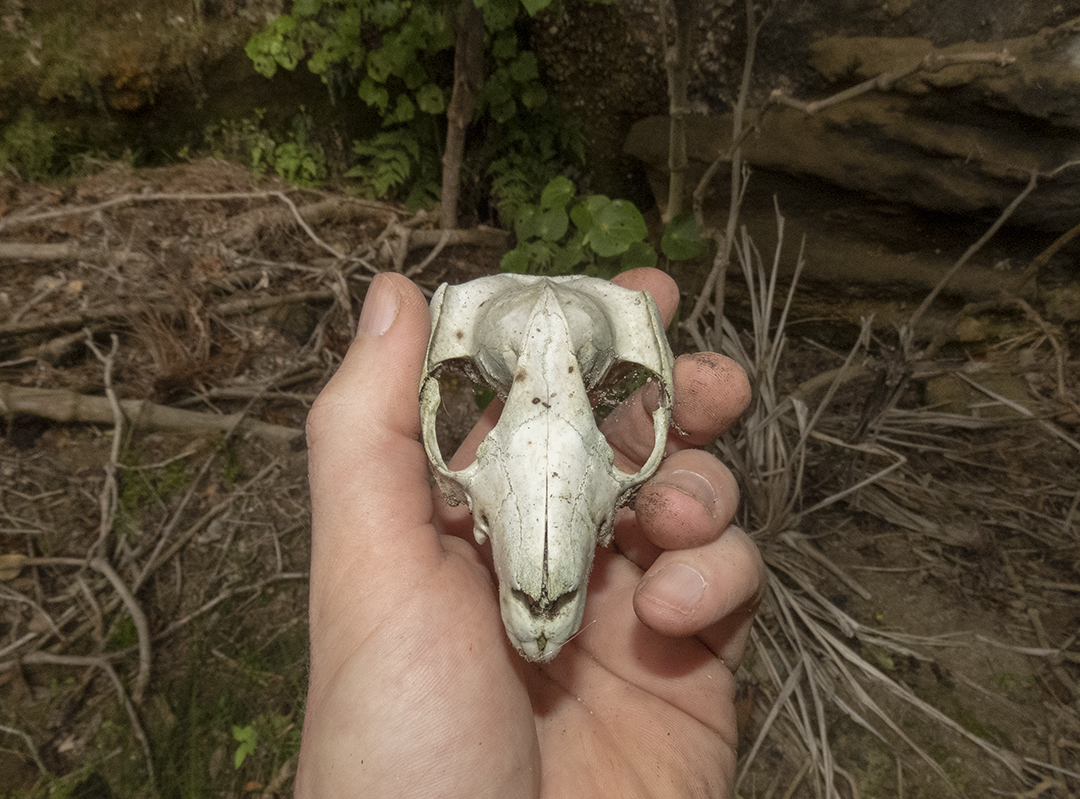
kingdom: Animalia
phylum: Chordata
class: Mammalia
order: Diprotodontia
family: Phalangeridae
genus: Trichosurus
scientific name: Trichosurus vulpecula
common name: Common brushtail
